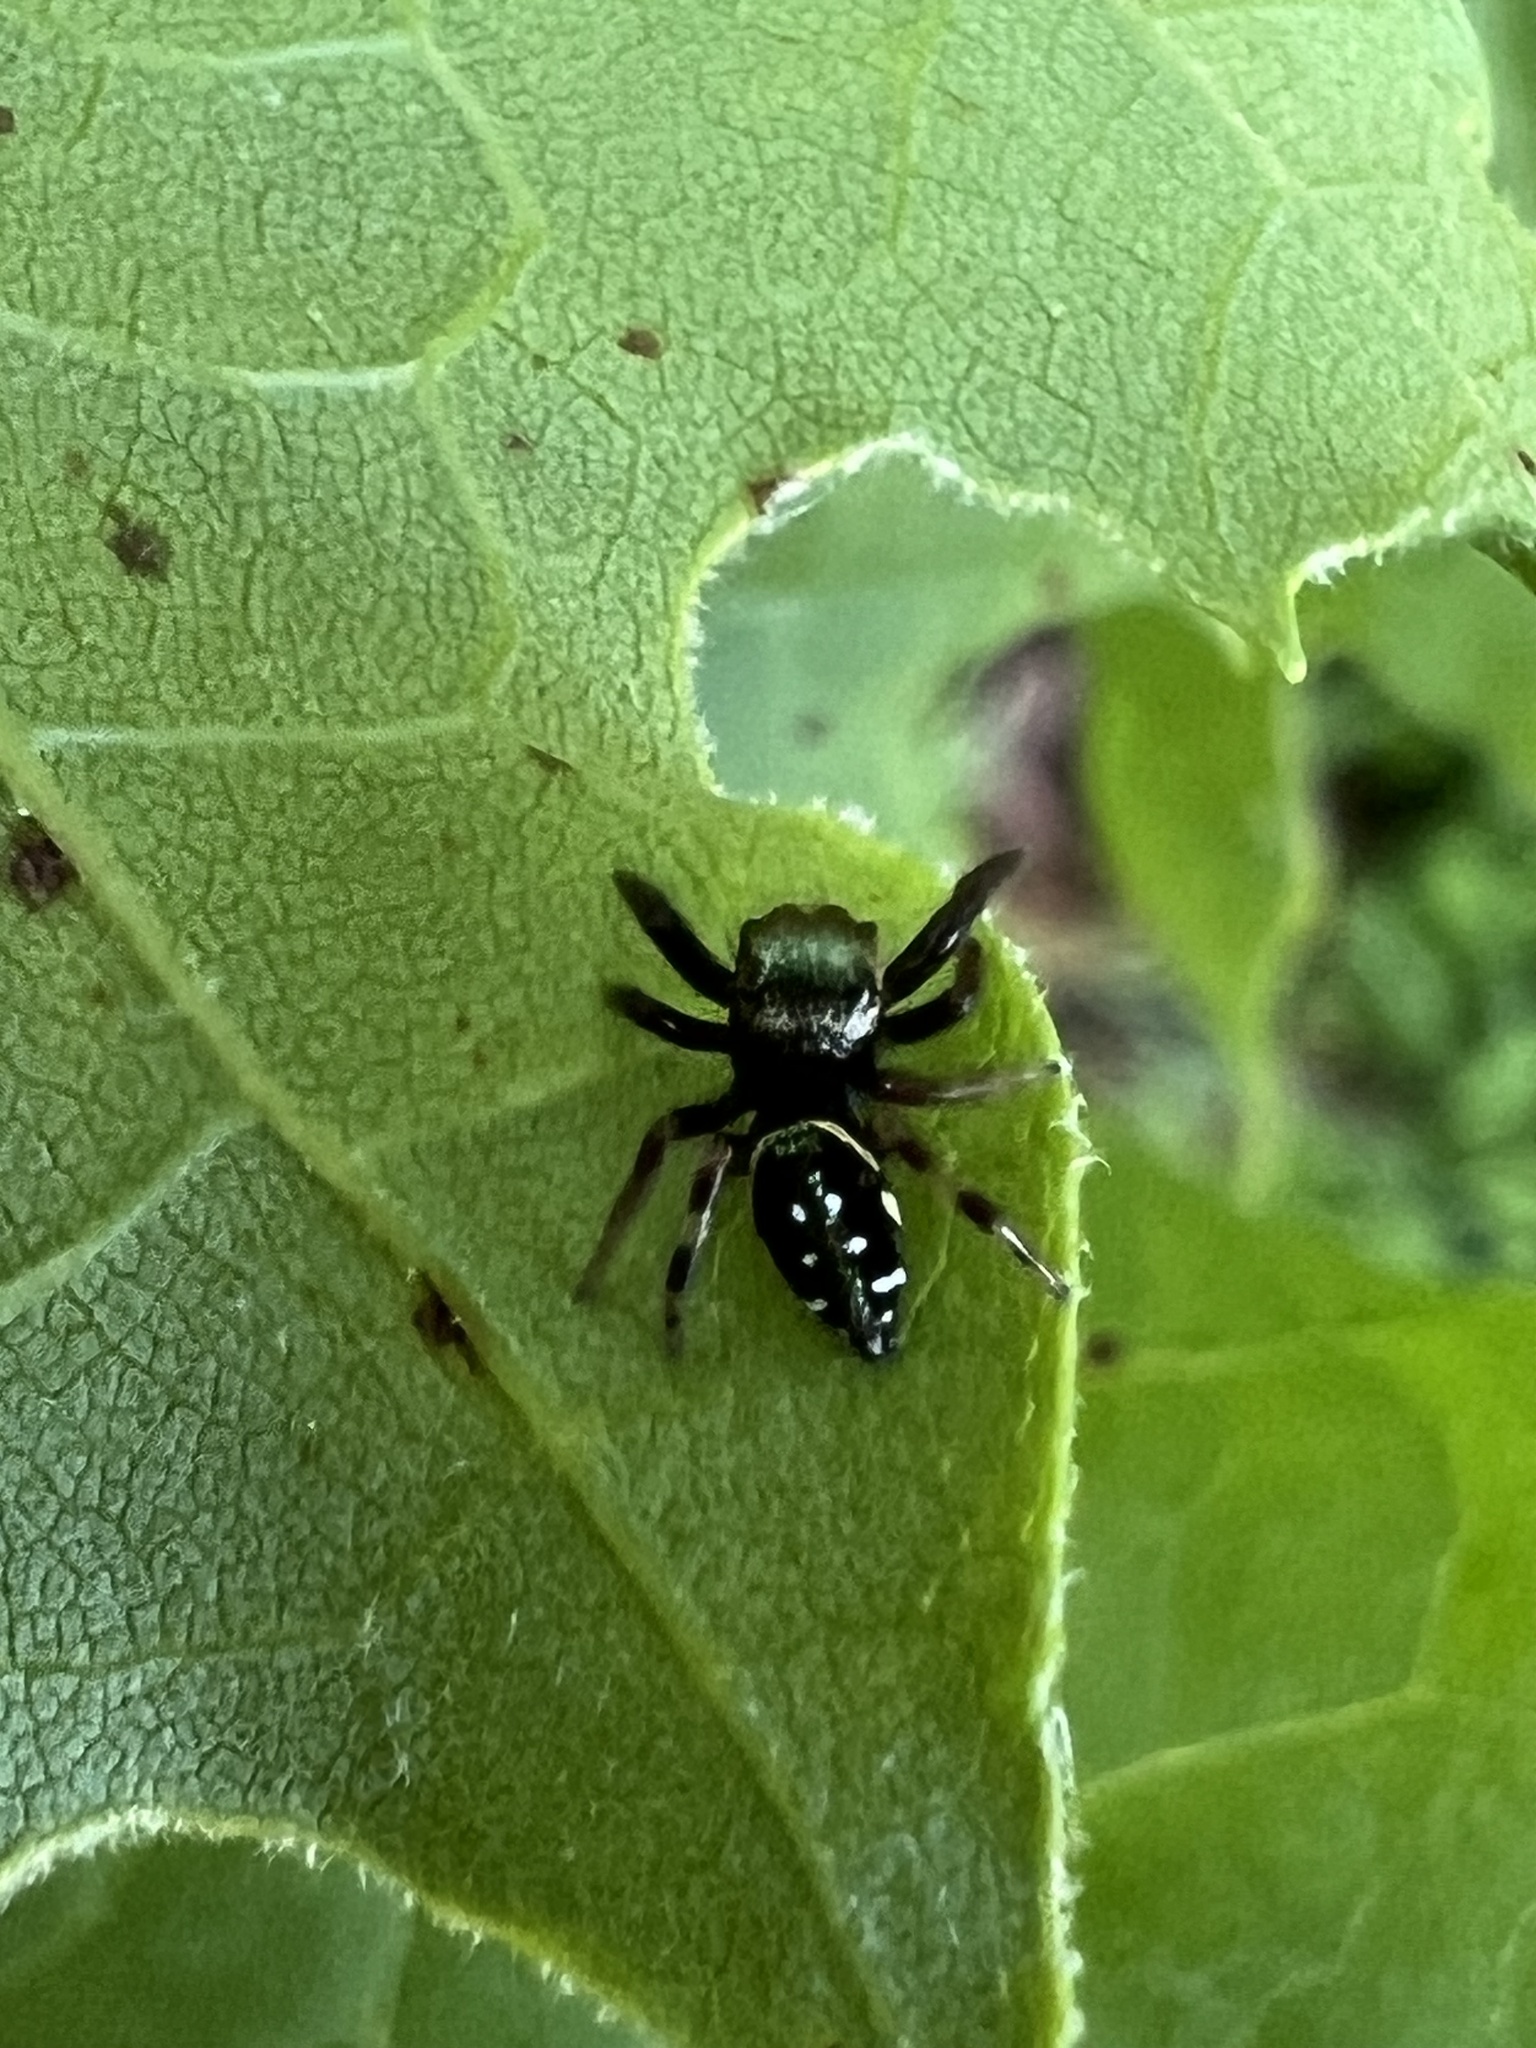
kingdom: Animalia
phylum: Arthropoda
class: Arachnida
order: Araneae
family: Salticidae
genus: Paraphidippus
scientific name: Paraphidippus aurantius
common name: Jumping spiders
